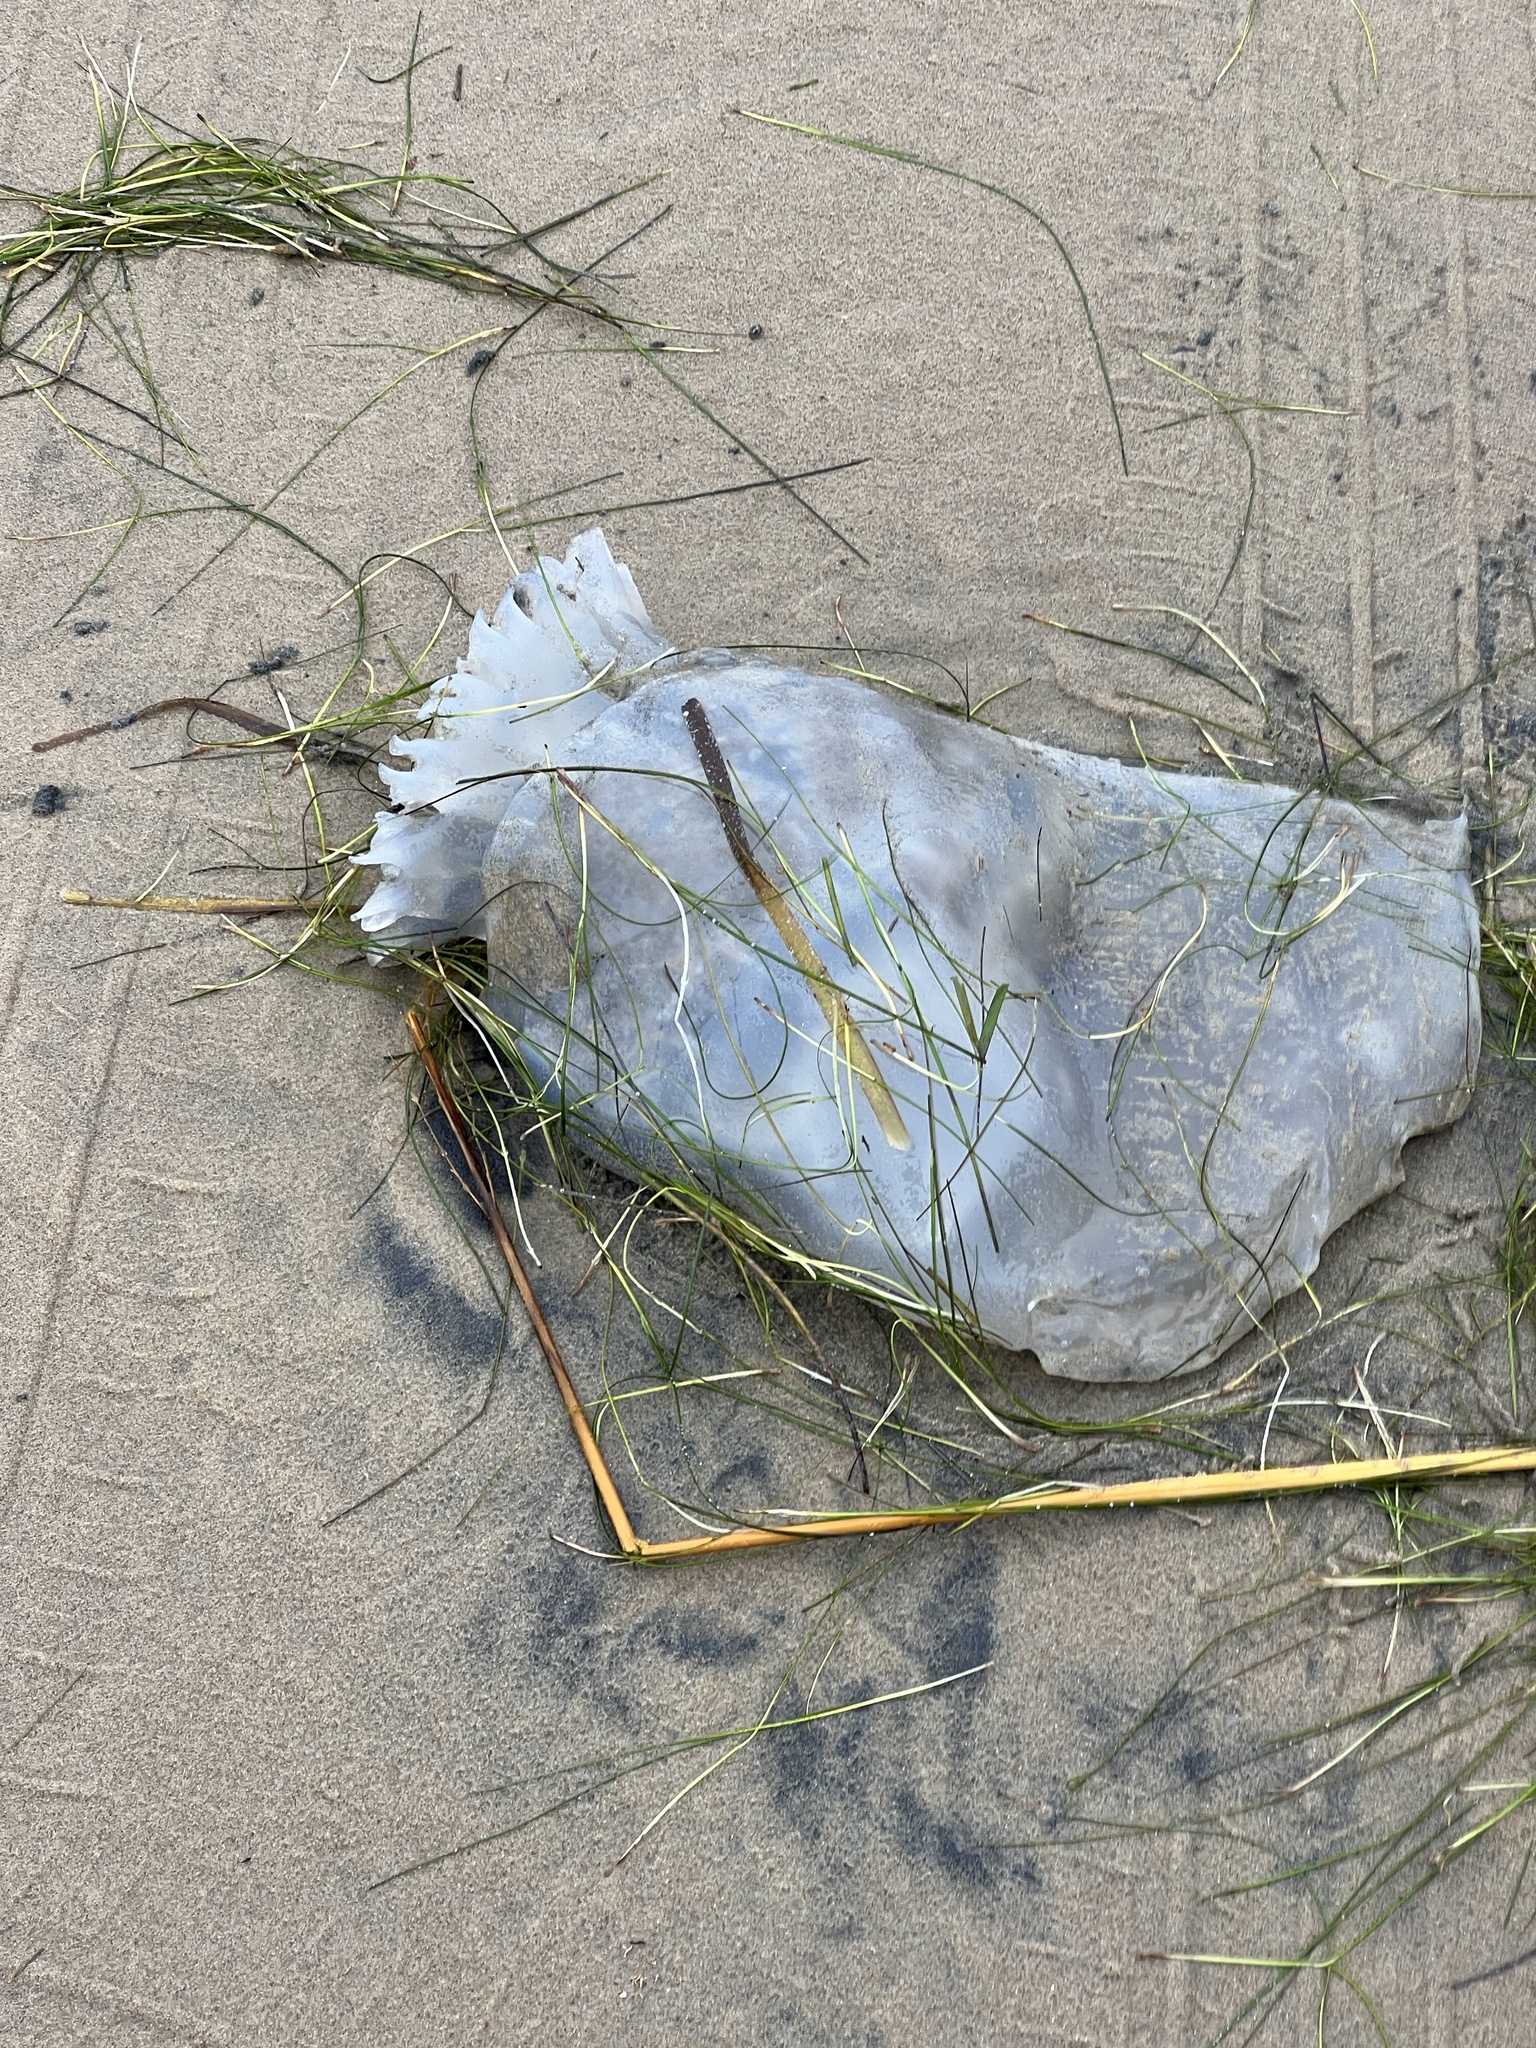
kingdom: Animalia
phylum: Cnidaria
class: Scyphozoa
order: Rhizostomeae
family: Stomolophidae
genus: Stomolophus
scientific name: Stomolophus meleagris
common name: Cabbagehead
